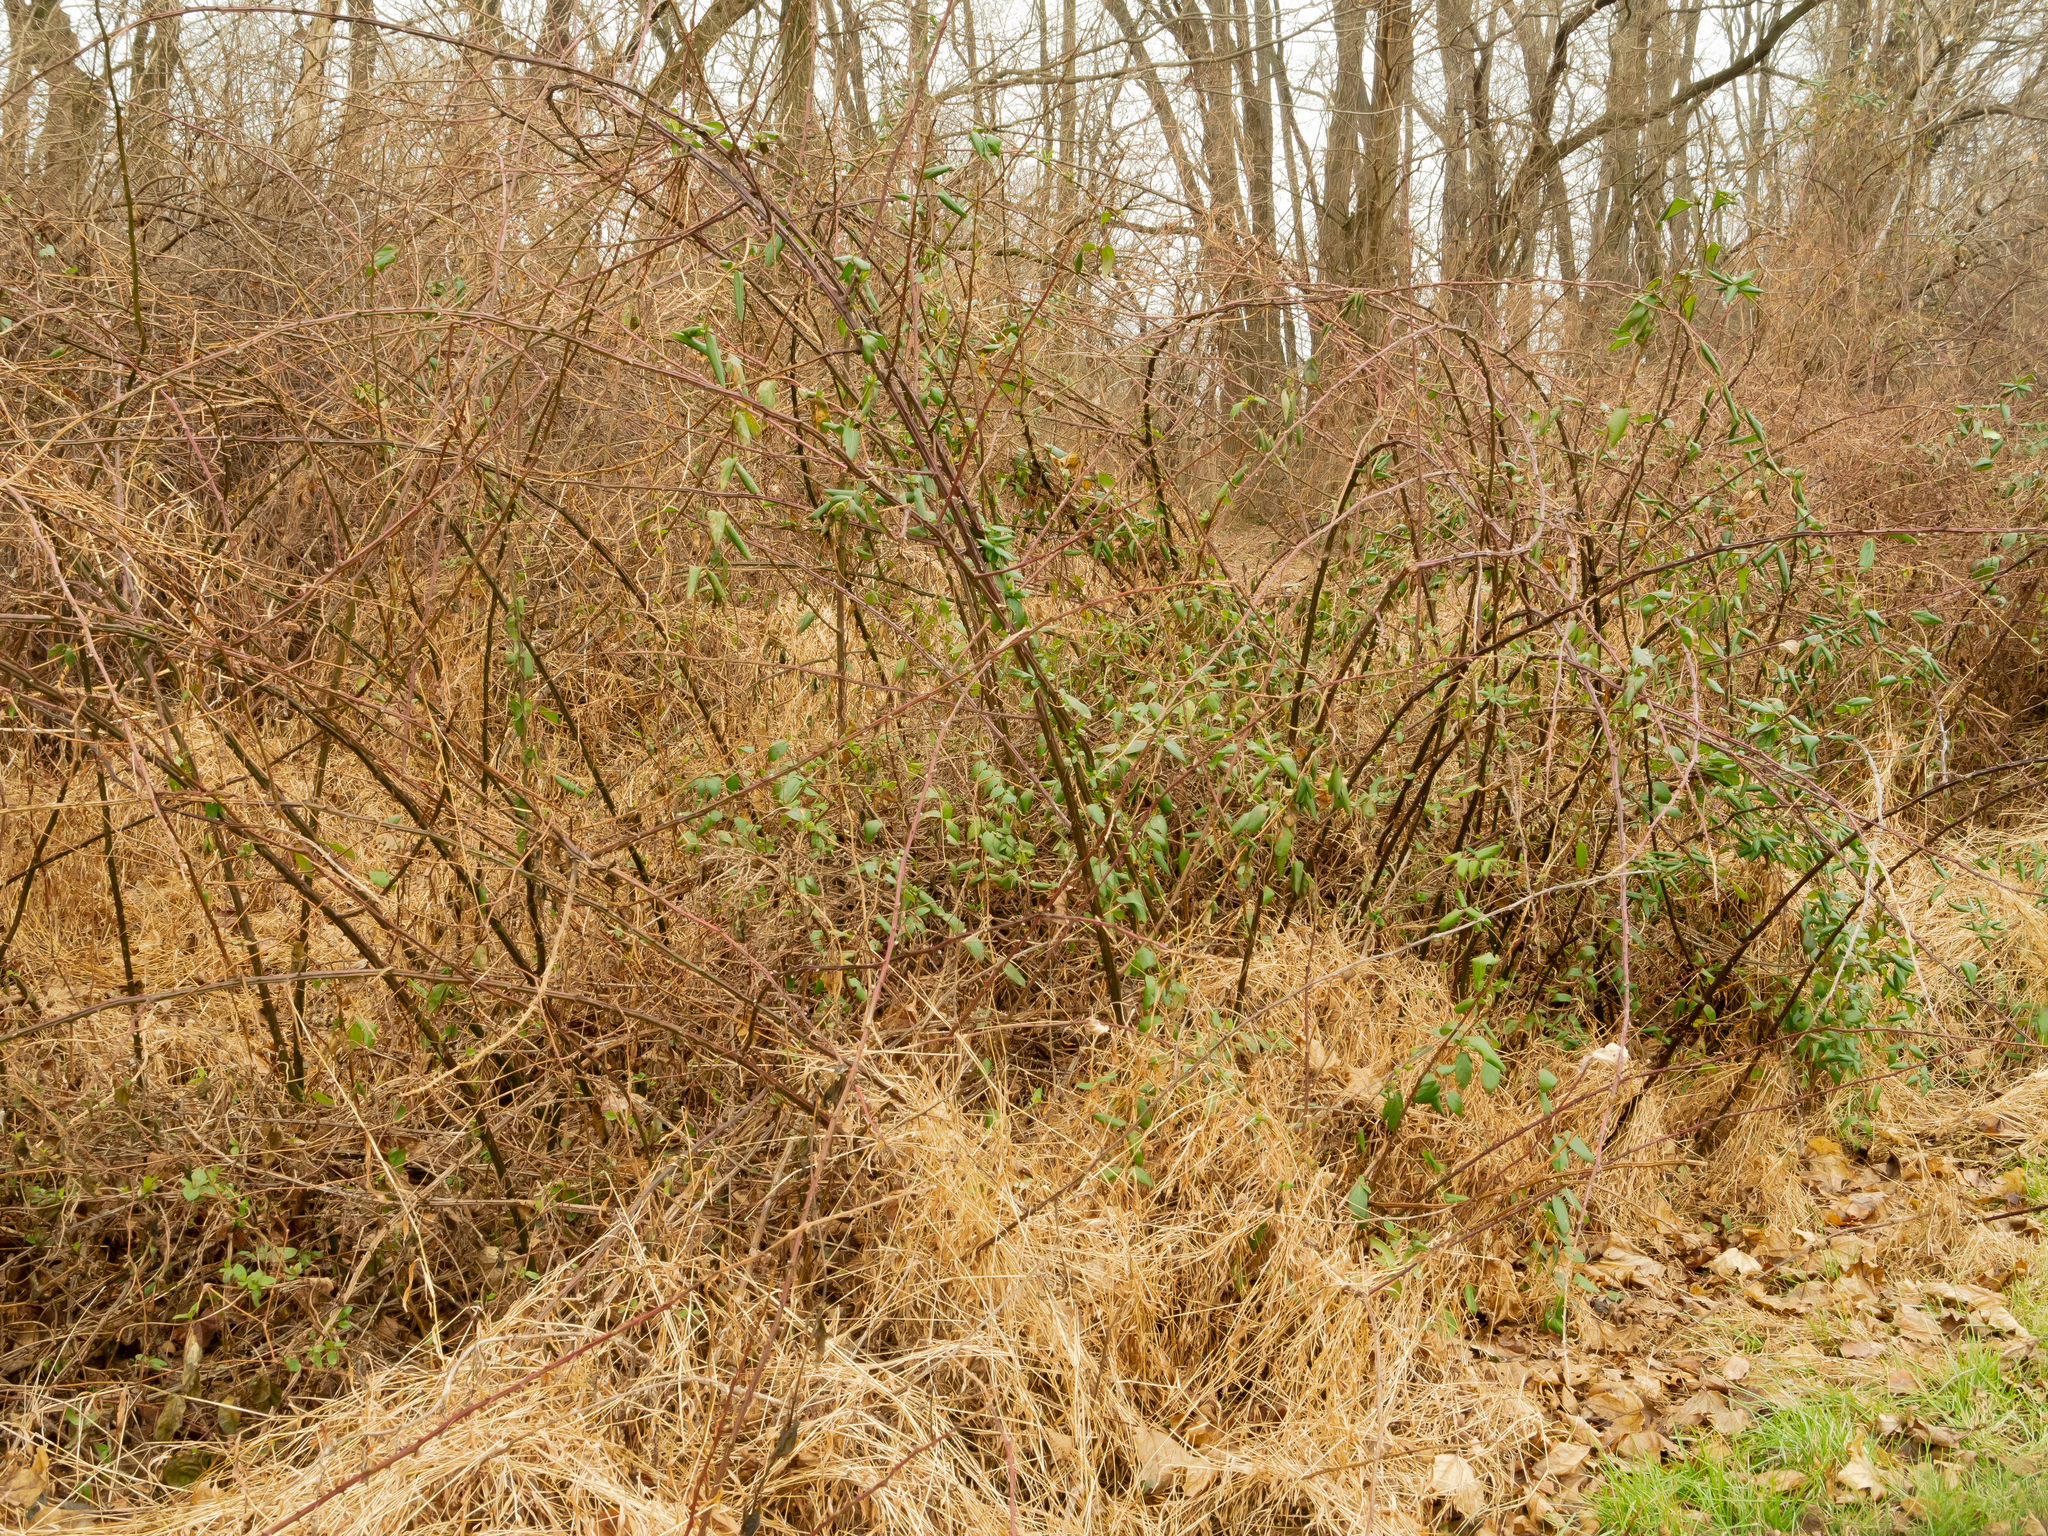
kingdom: Plantae
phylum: Tracheophyta
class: Magnoliopsida
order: Rosales
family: Rosaceae
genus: Rubus
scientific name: Rubus pensilvanicus
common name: Pennsylvania blackberry
